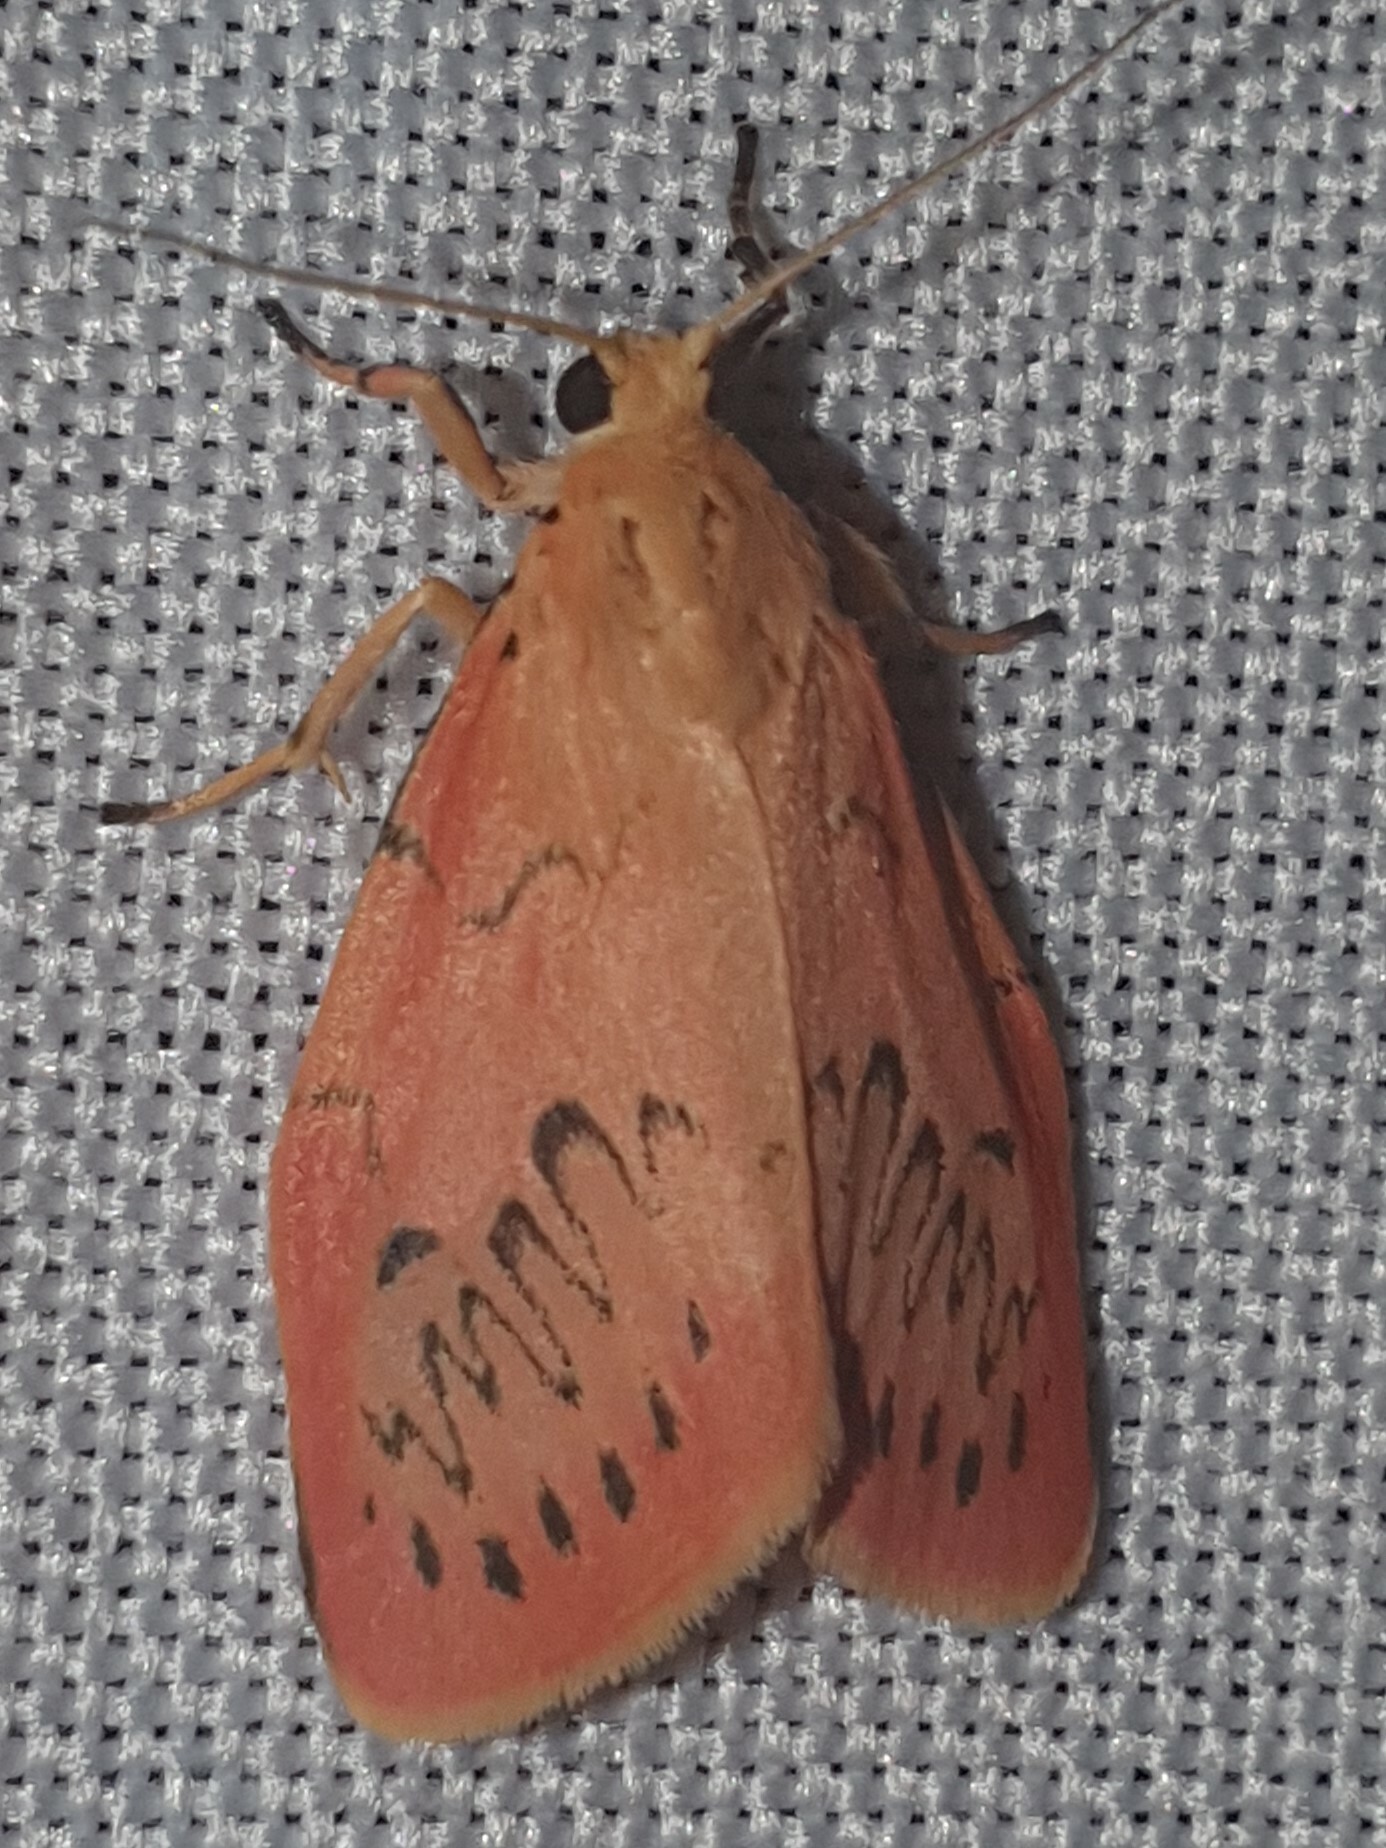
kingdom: Animalia
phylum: Arthropoda
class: Insecta
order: Lepidoptera
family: Erebidae
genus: Miltochrista
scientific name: Miltochrista miniata
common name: Rosy footman
